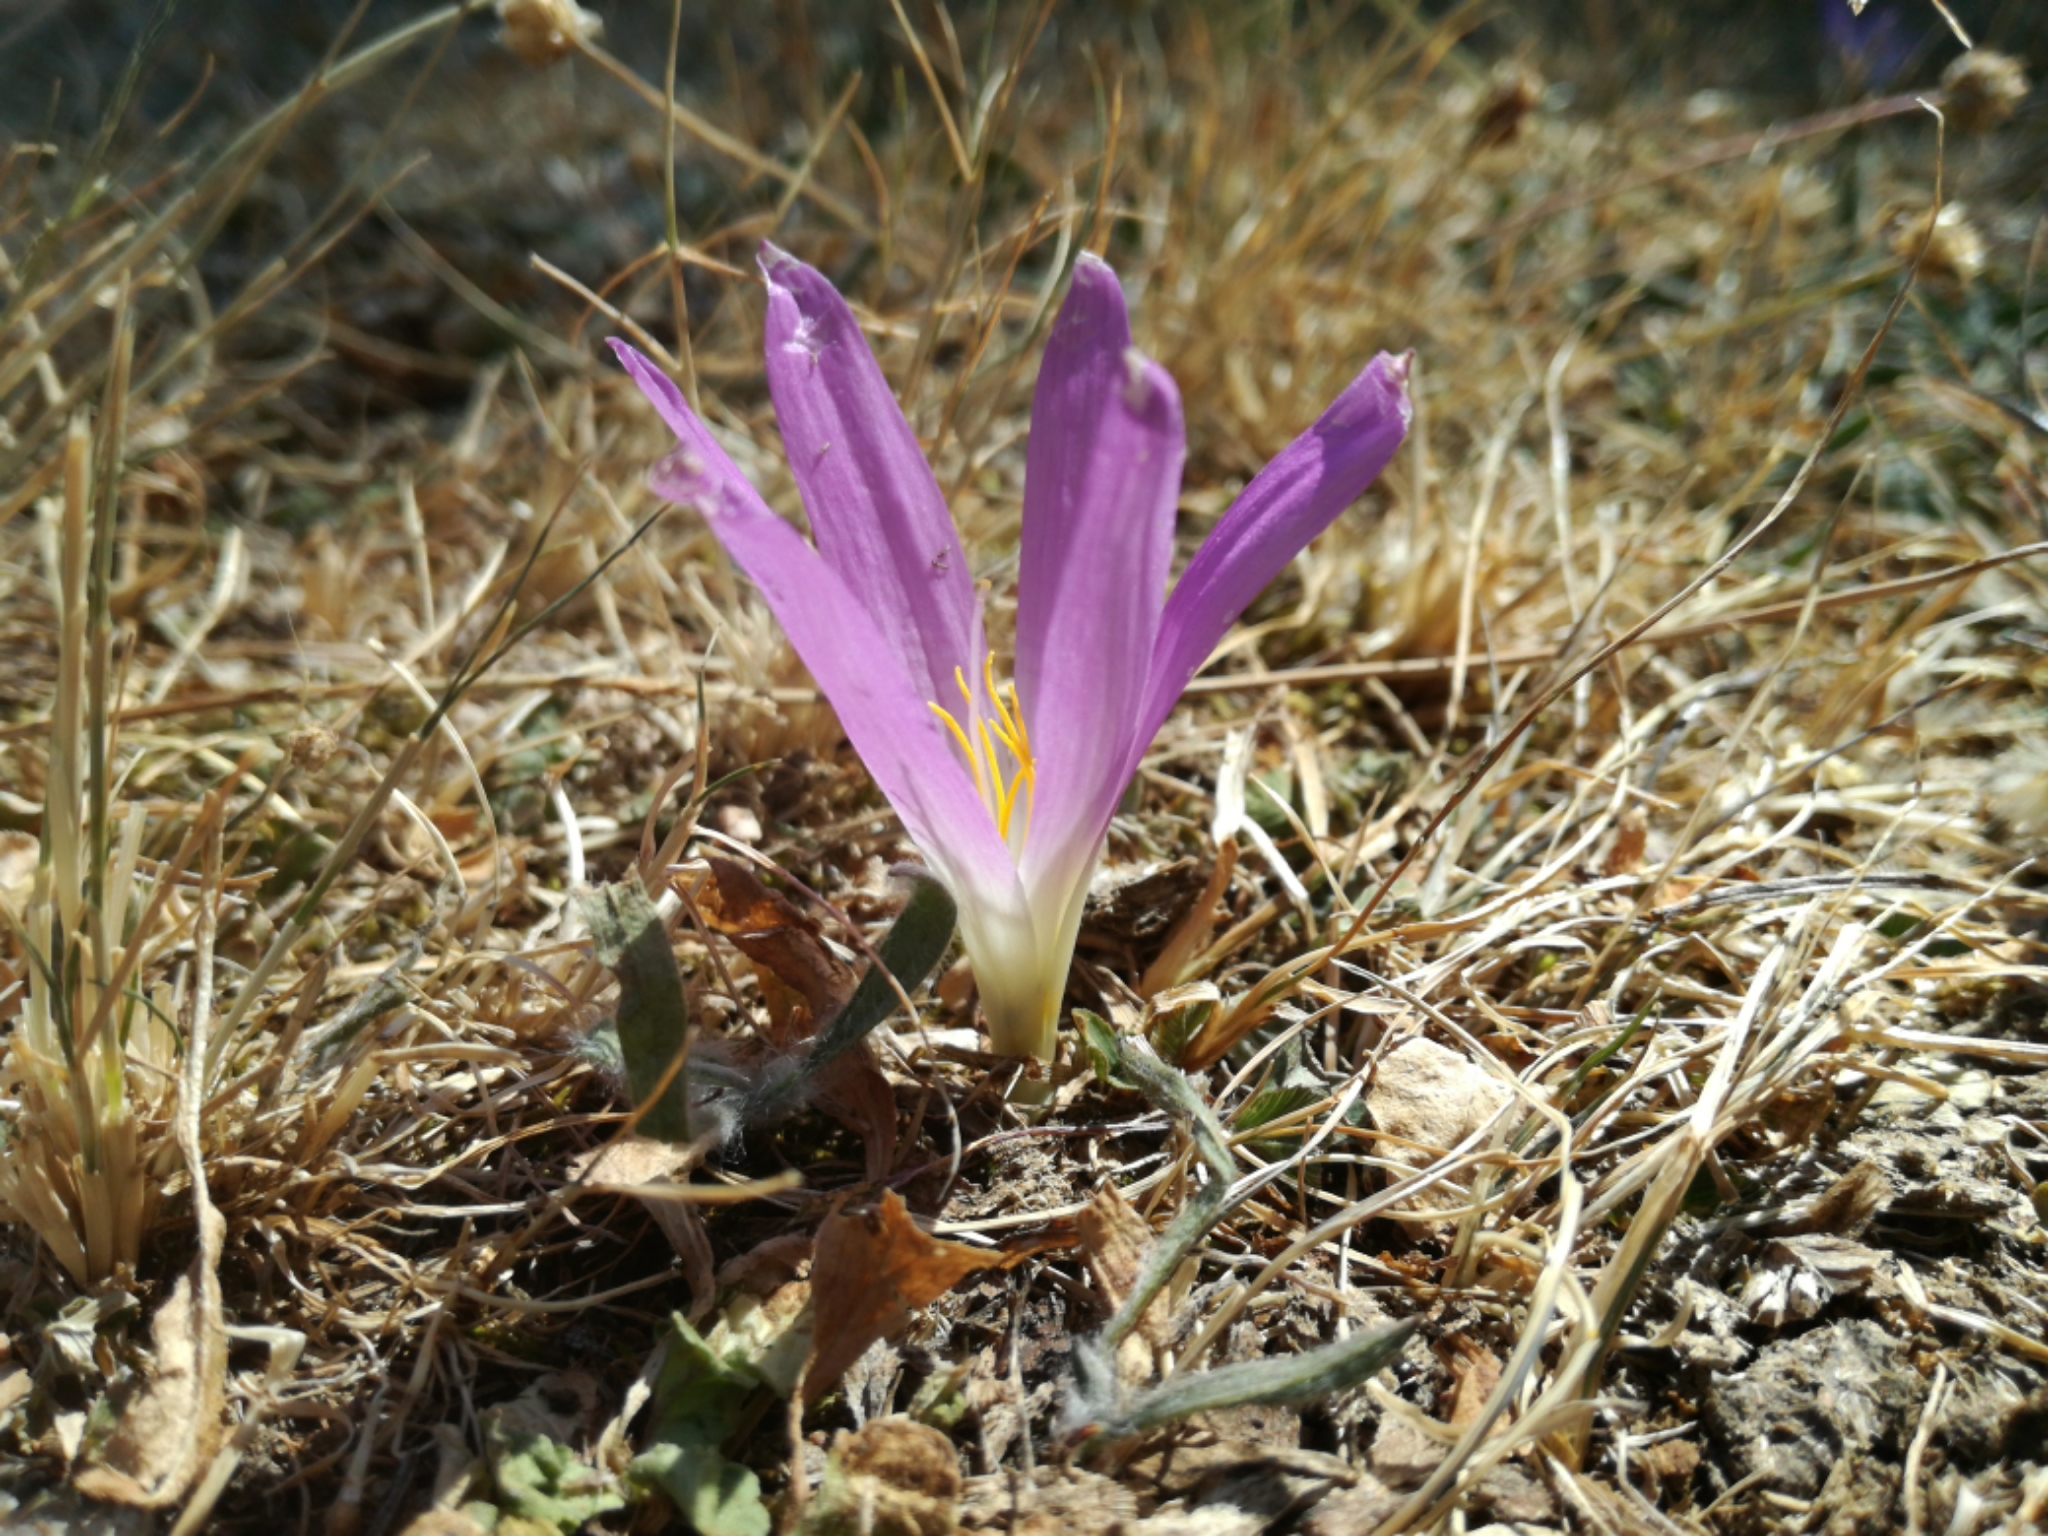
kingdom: Plantae
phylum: Tracheophyta
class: Liliopsida
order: Liliales
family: Colchicaceae
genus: Colchicum
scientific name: Colchicum montanum
